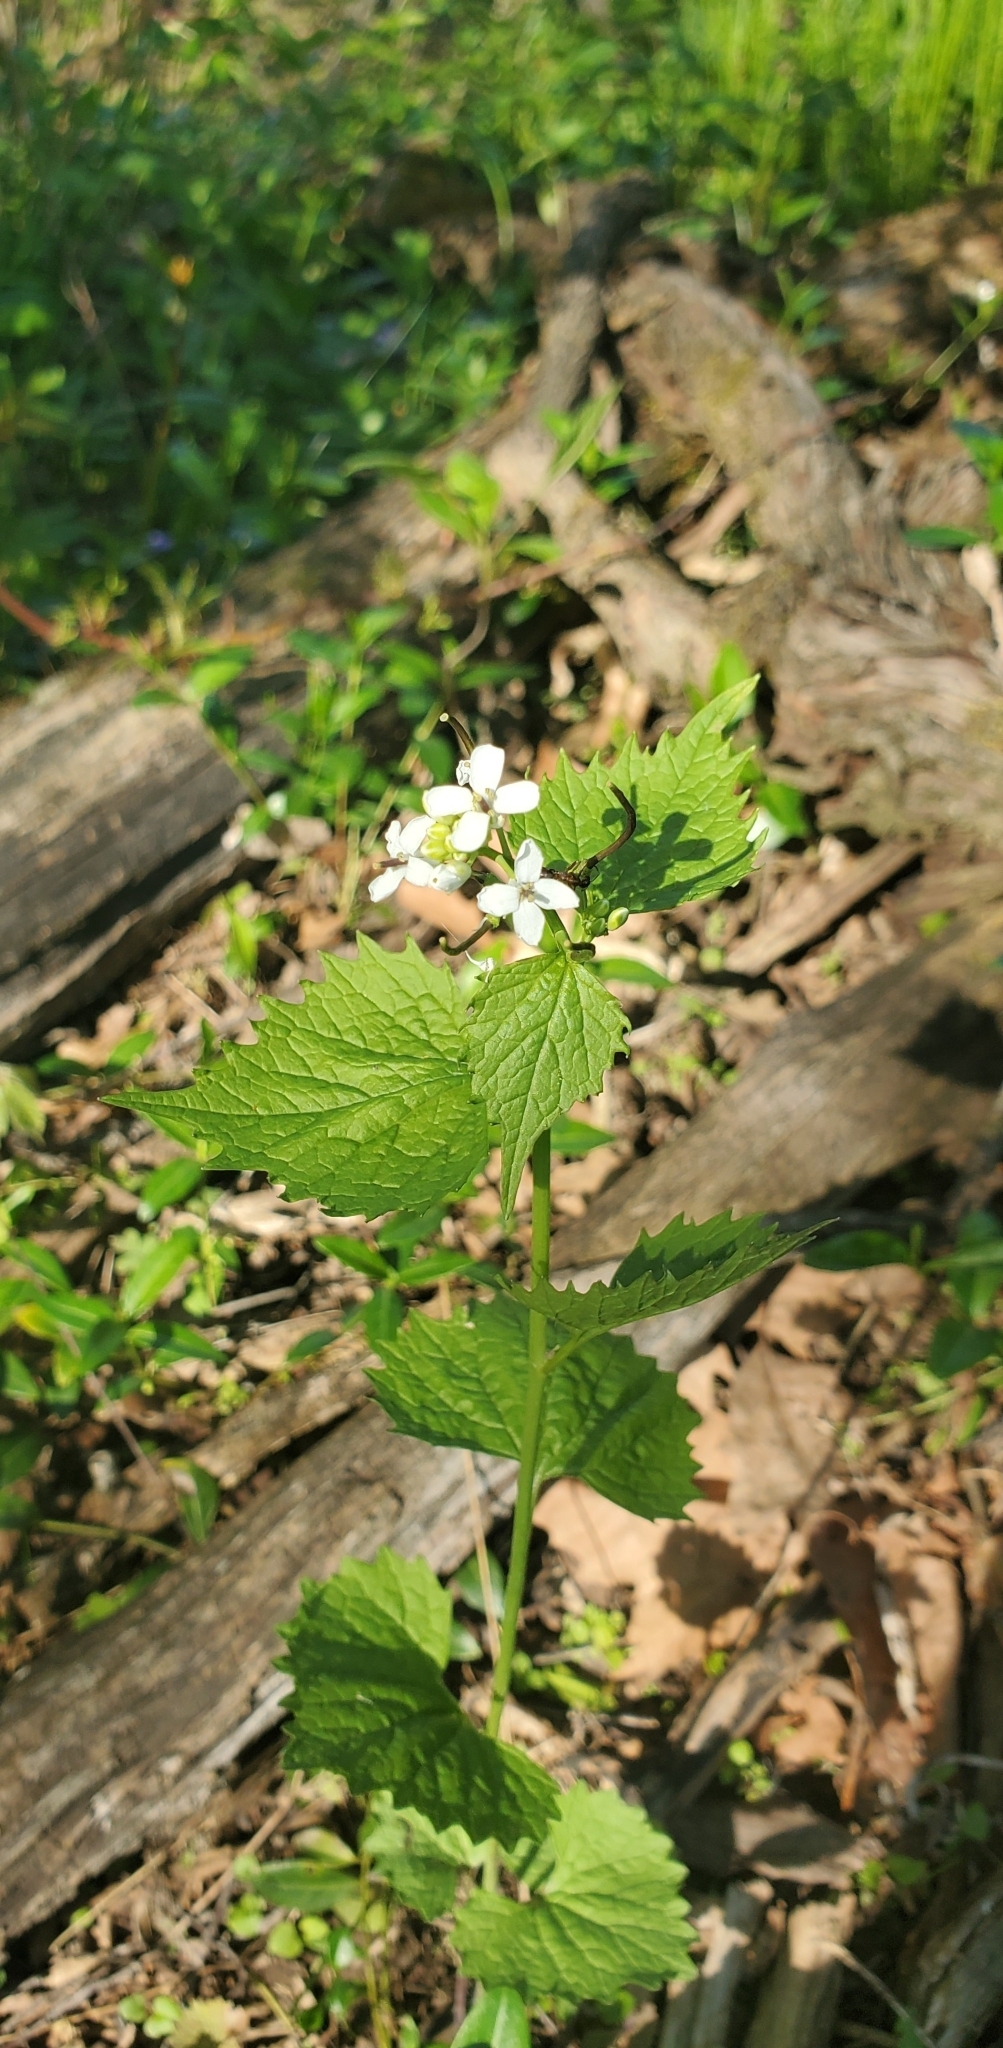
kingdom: Plantae
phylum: Tracheophyta
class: Magnoliopsida
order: Brassicales
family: Brassicaceae
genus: Alliaria
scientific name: Alliaria petiolata
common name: Garlic mustard
